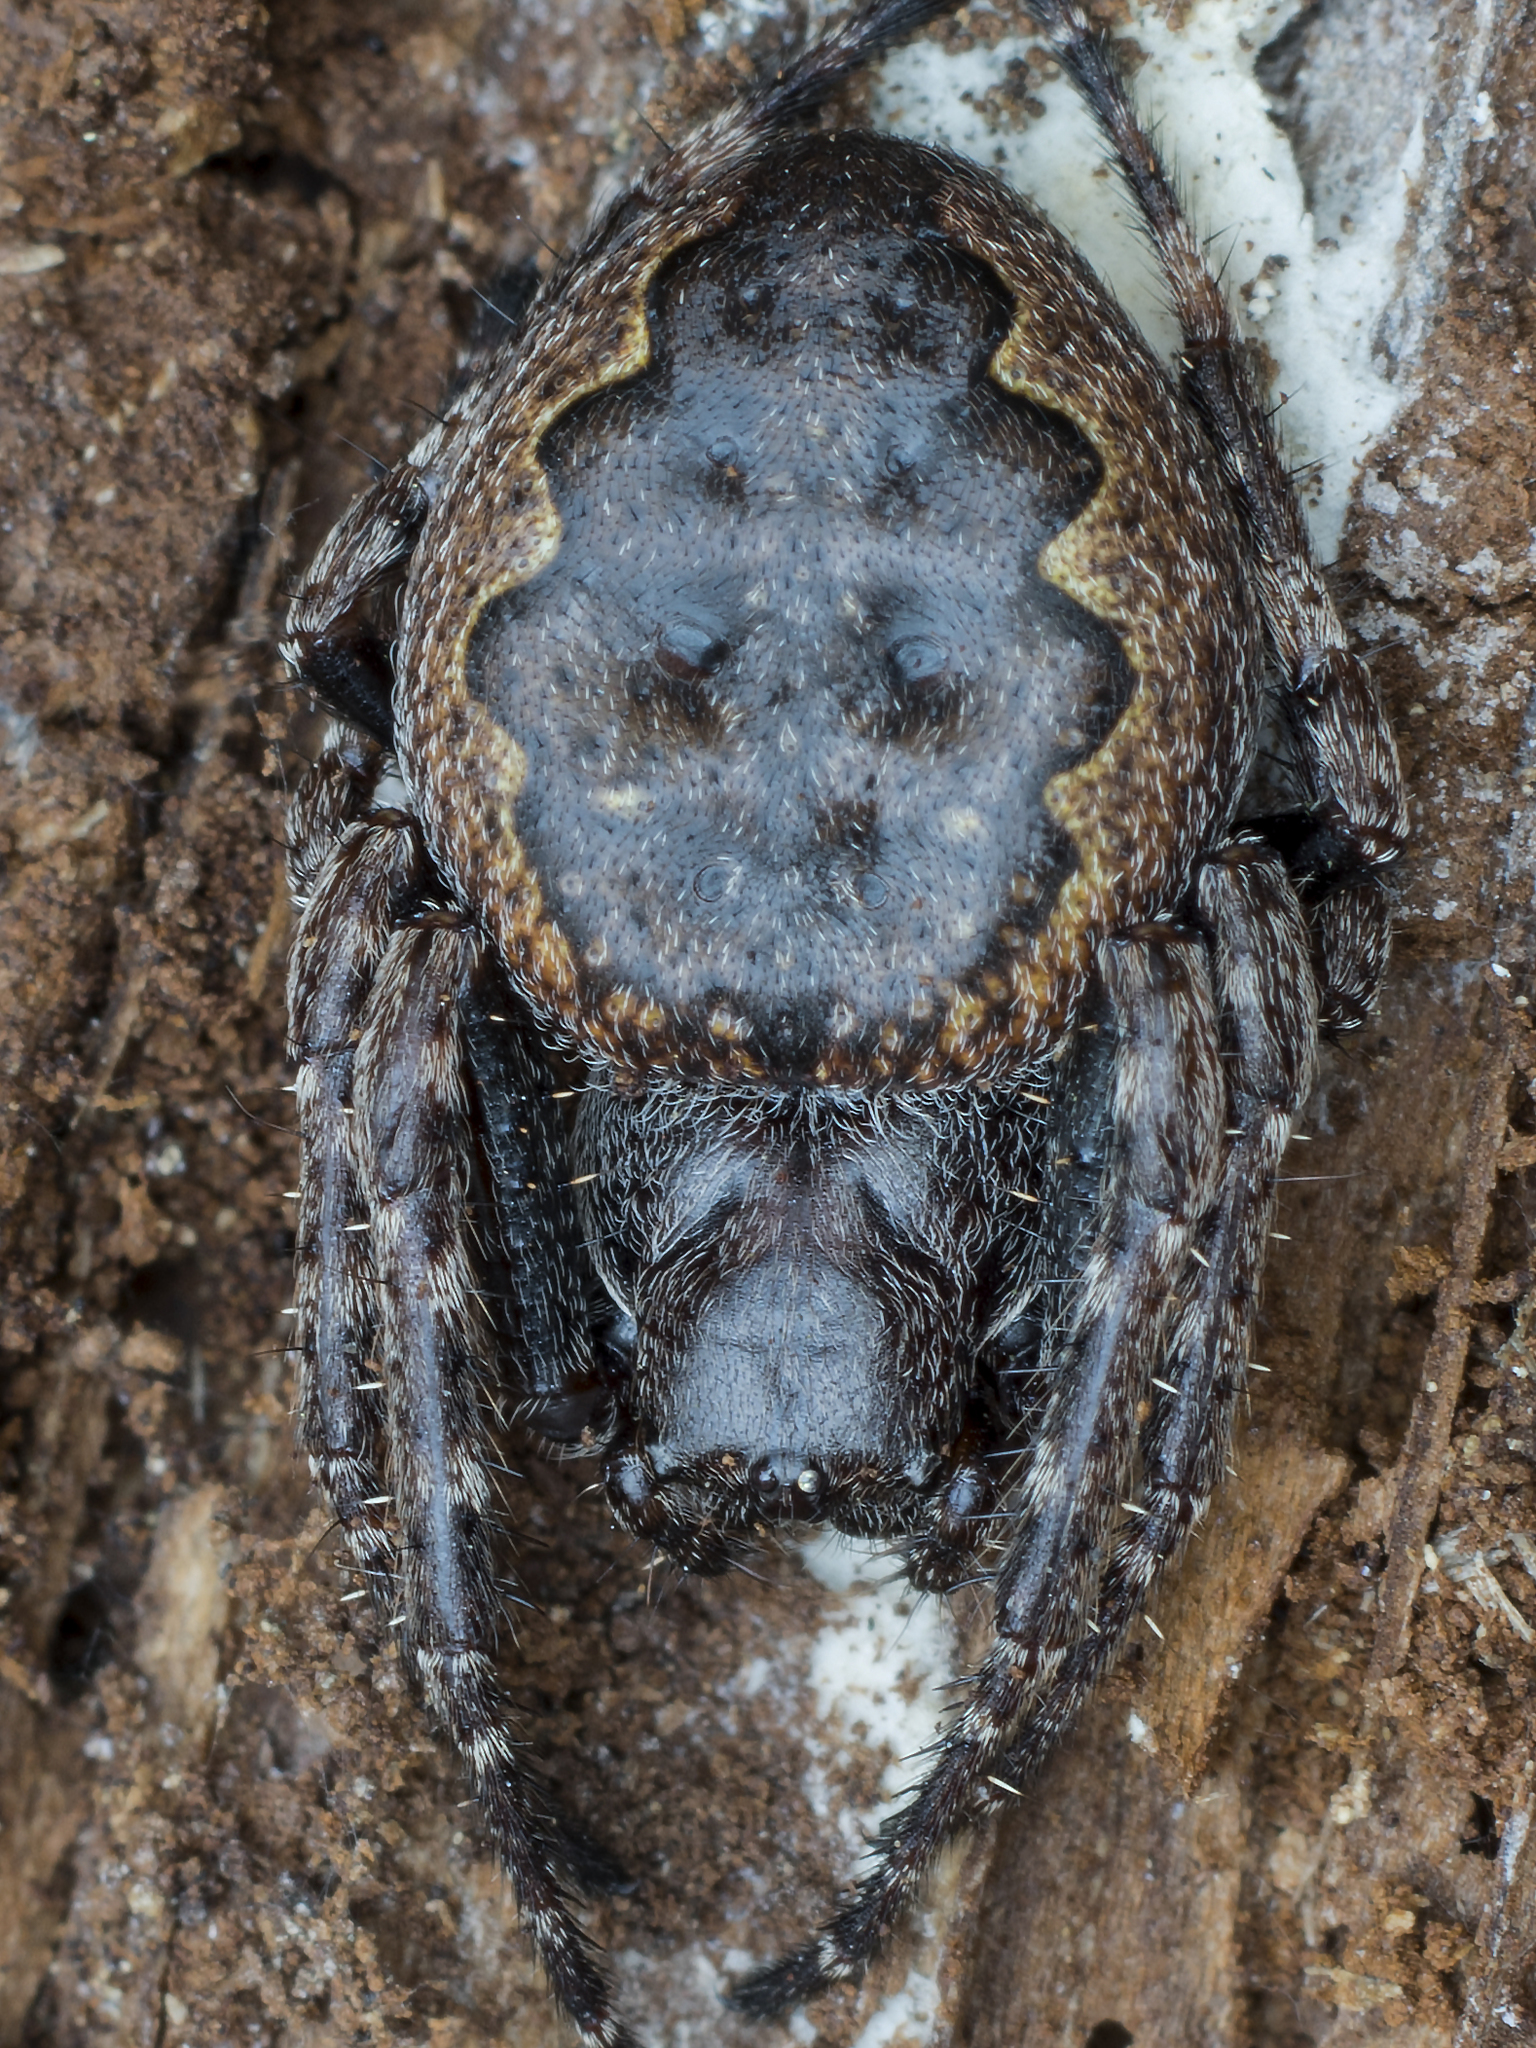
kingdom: Animalia
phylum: Arthropoda
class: Arachnida
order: Araneae
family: Araneidae
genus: Nuctenea
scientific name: Nuctenea umbratica
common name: Toad spider
